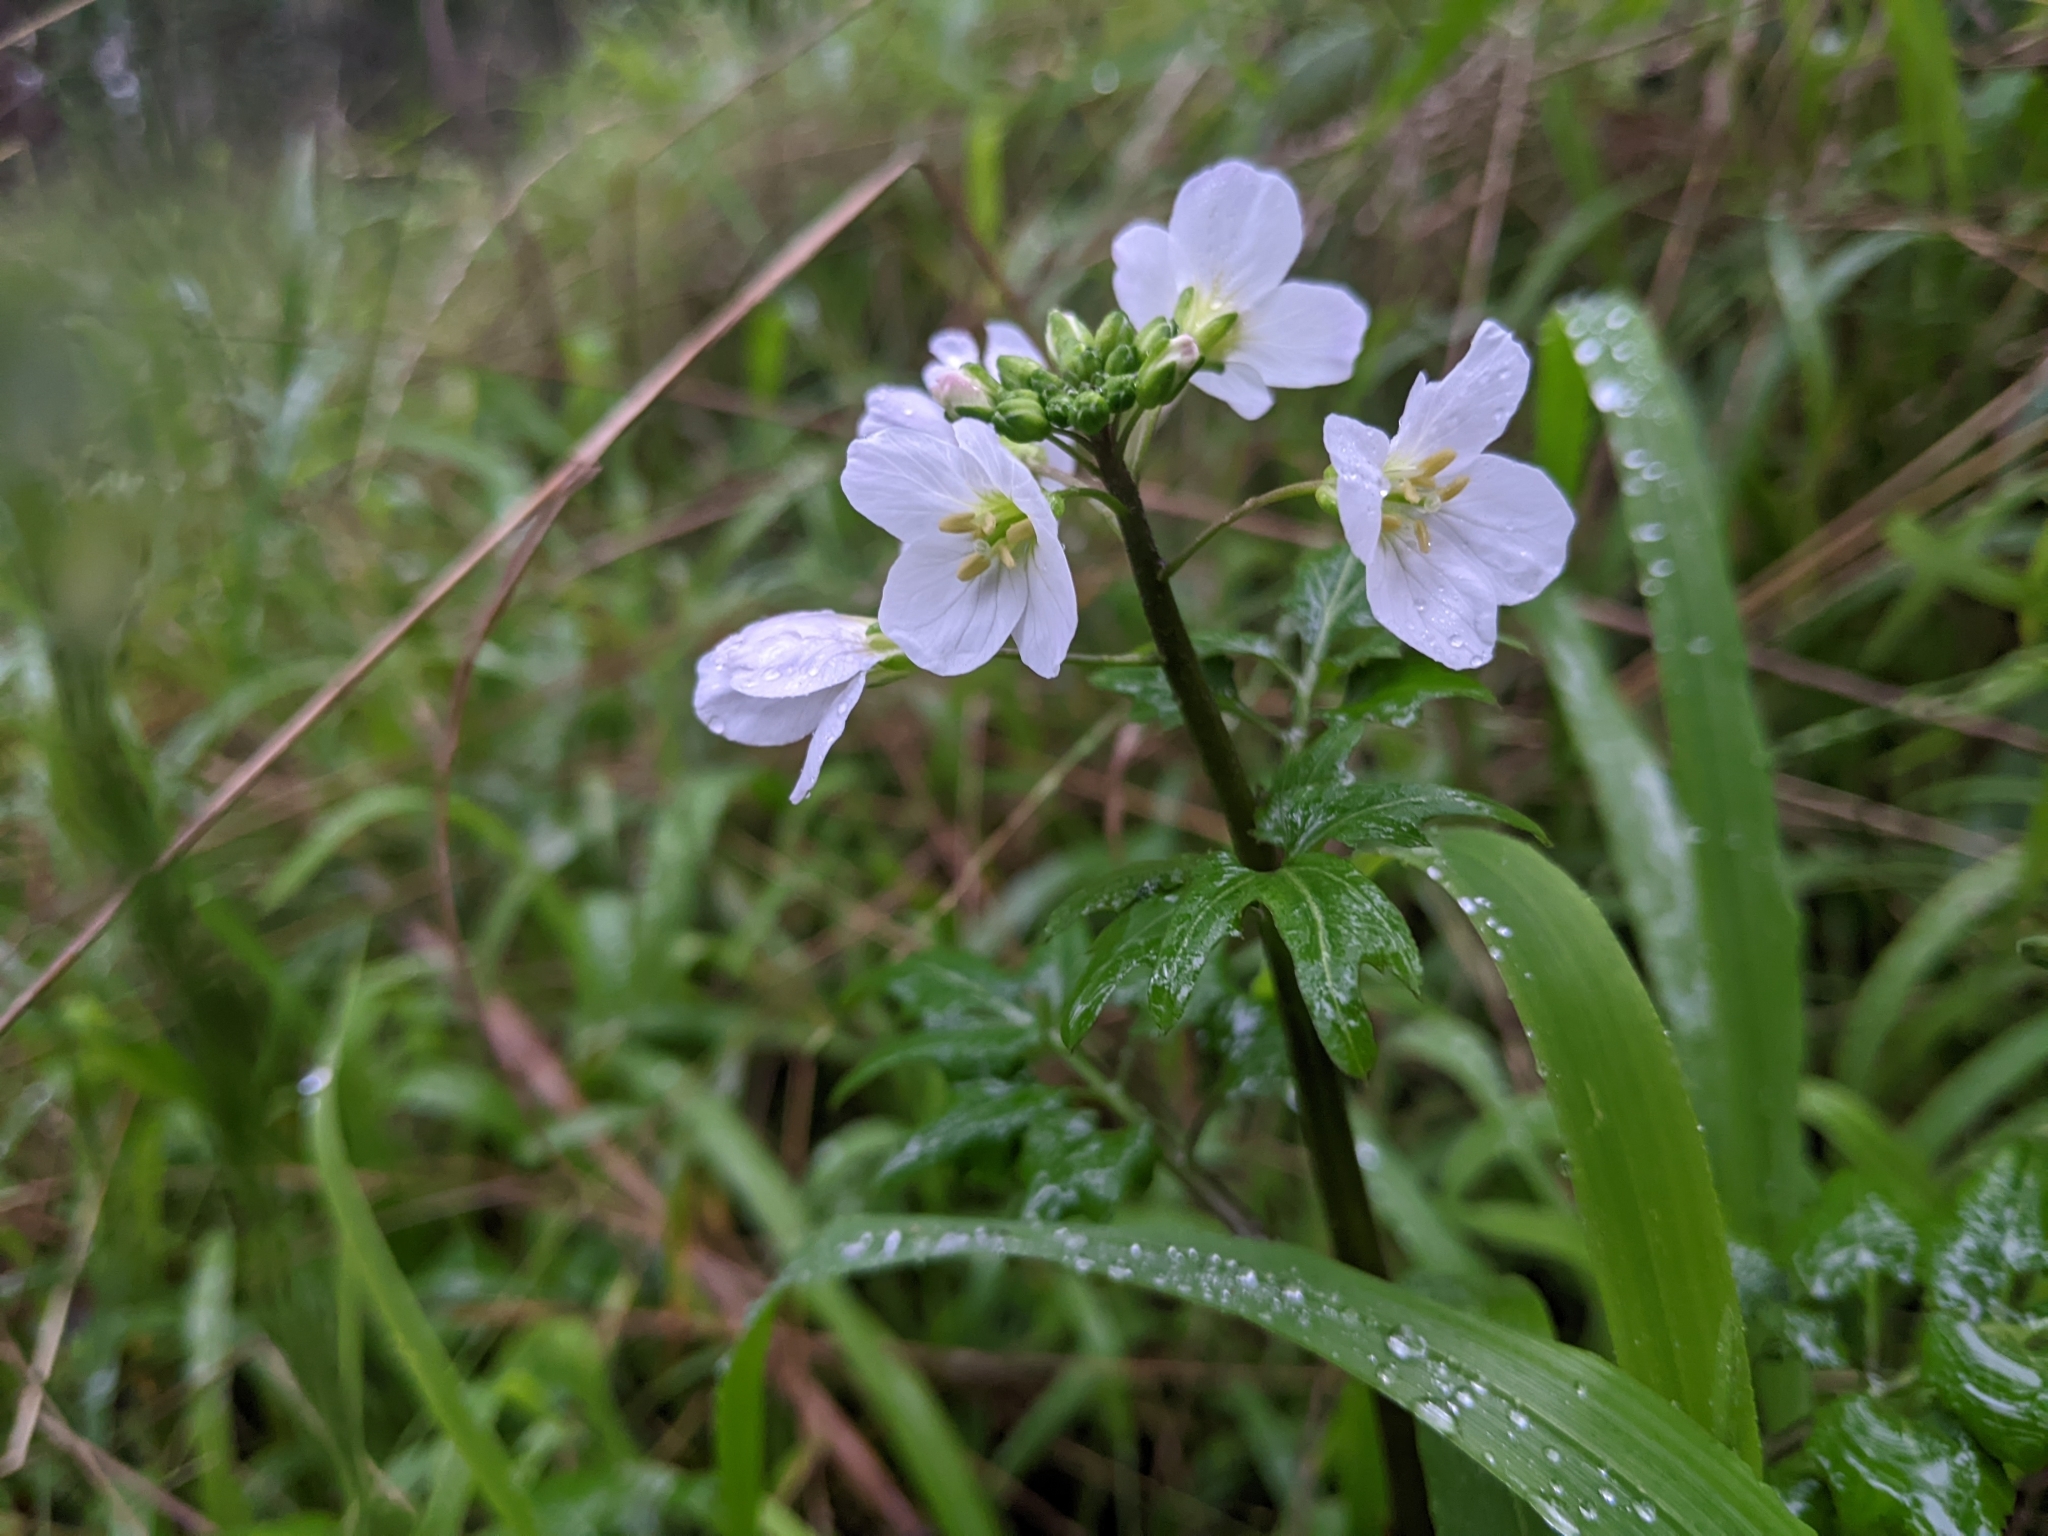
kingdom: Plantae
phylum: Tracheophyta
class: Magnoliopsida
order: Brassicales
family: Brassicaceae
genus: Cardamine
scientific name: Cardamine californica
